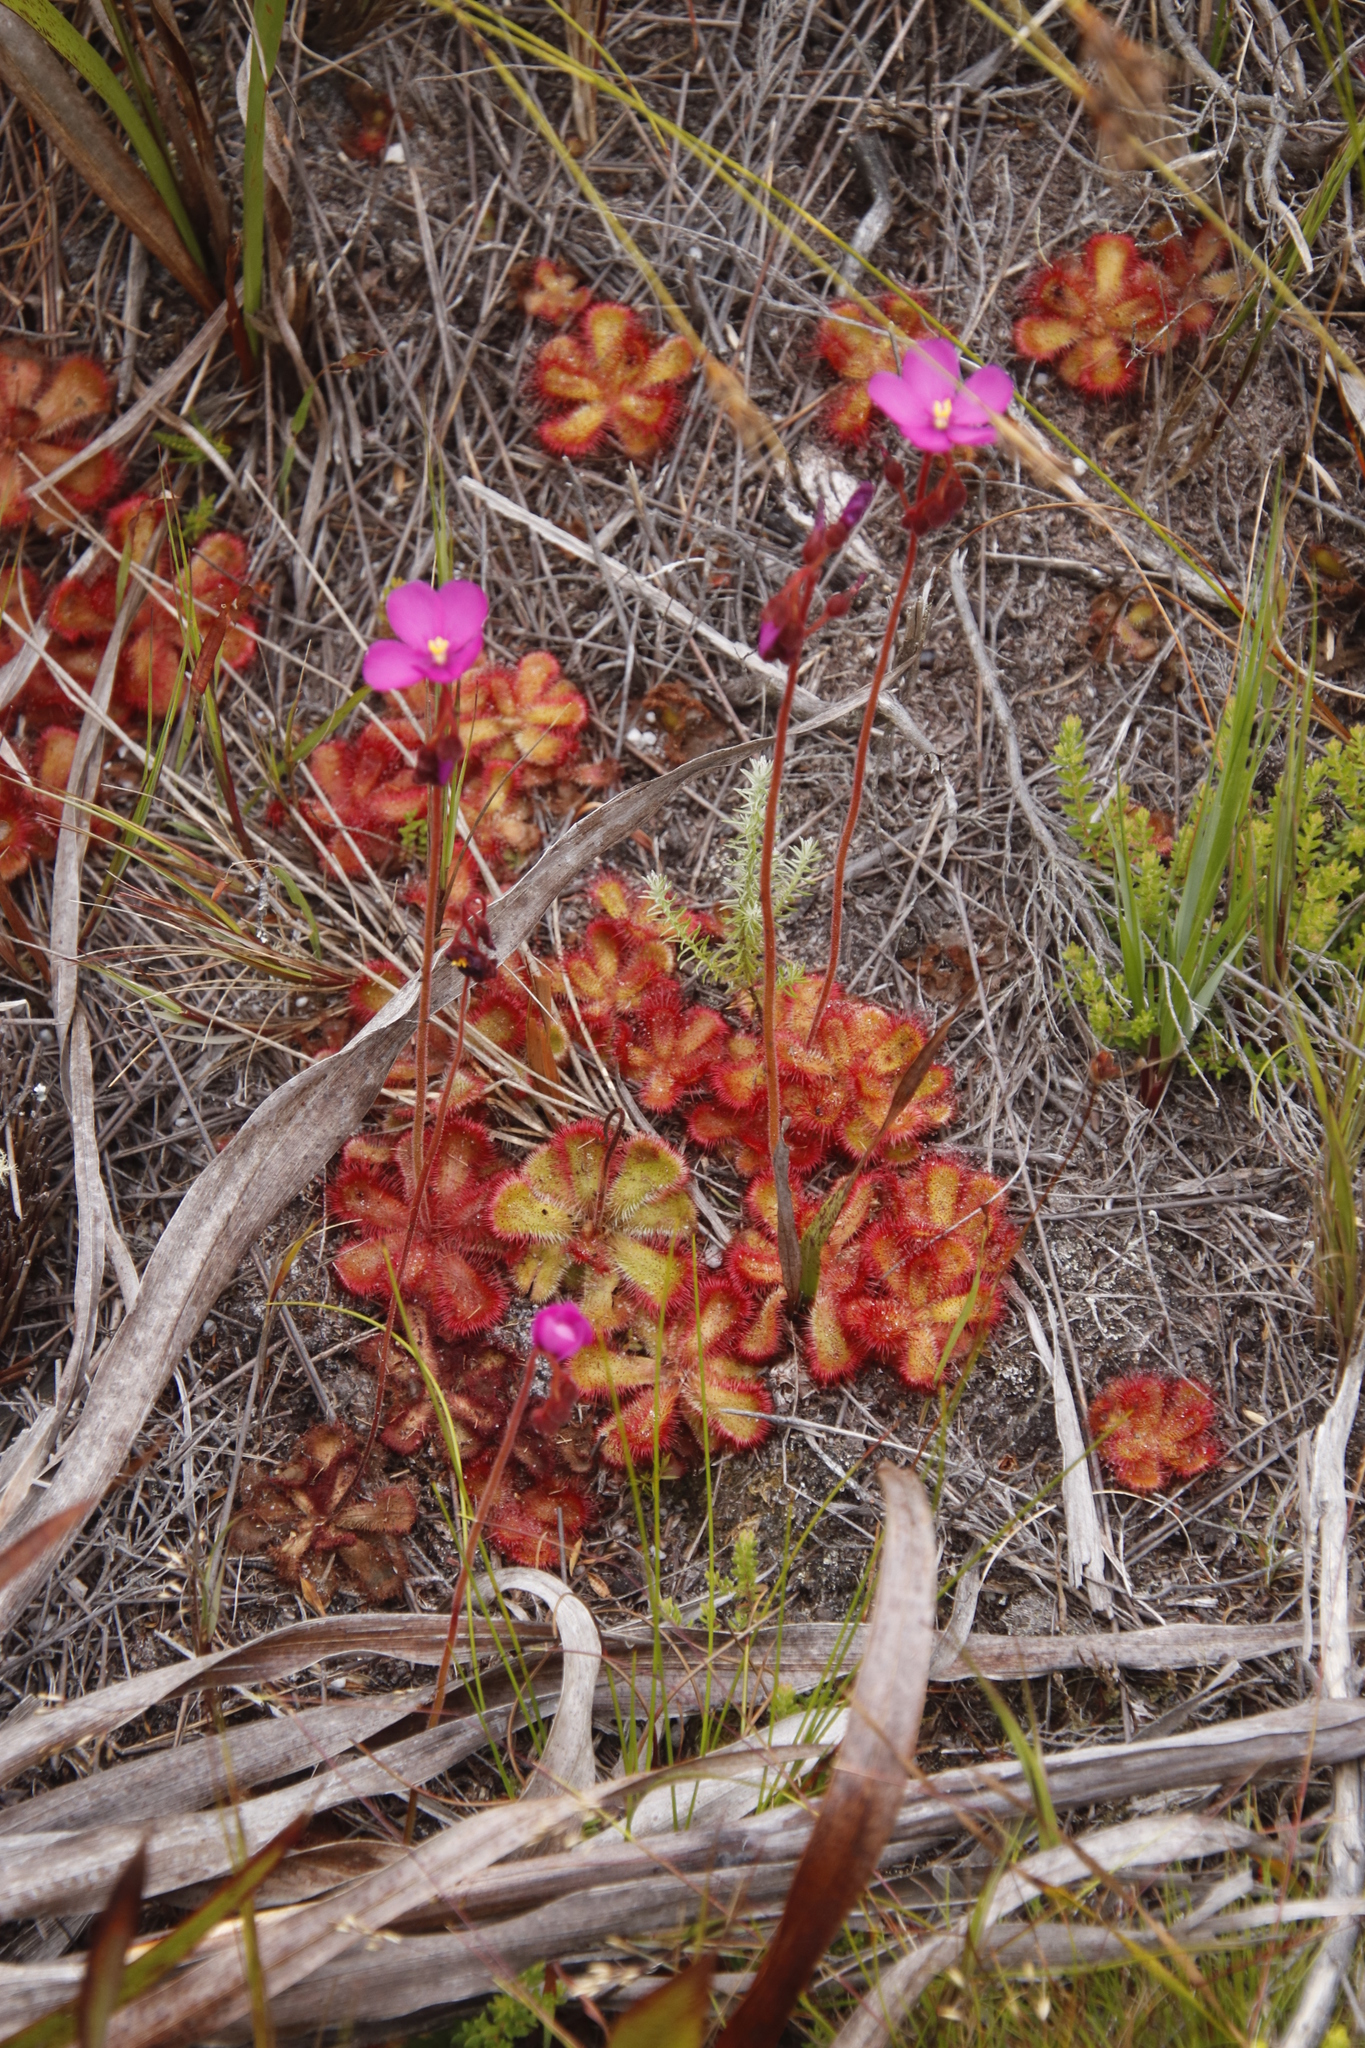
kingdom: Plantae
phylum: Tracheophyta
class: Magnoliopsida
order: Caryophyllales
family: Droseraceae
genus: Drosera
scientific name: Drosera cuneifolia
